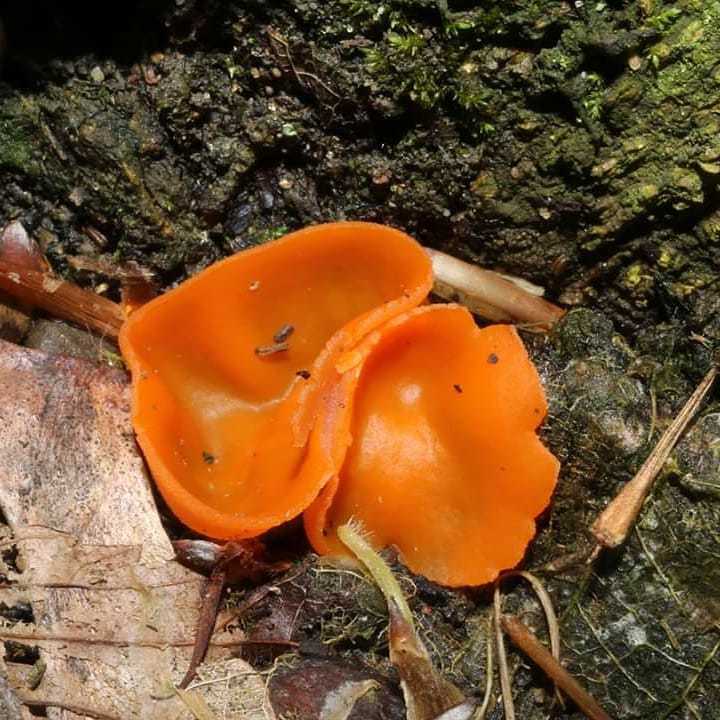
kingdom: Fungi
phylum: Ascomycota
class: Pezizomycetes
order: Pezizales
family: Pyronemataceae
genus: Aleuria
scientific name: Aleuria aurantia
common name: Orange peel fungus
